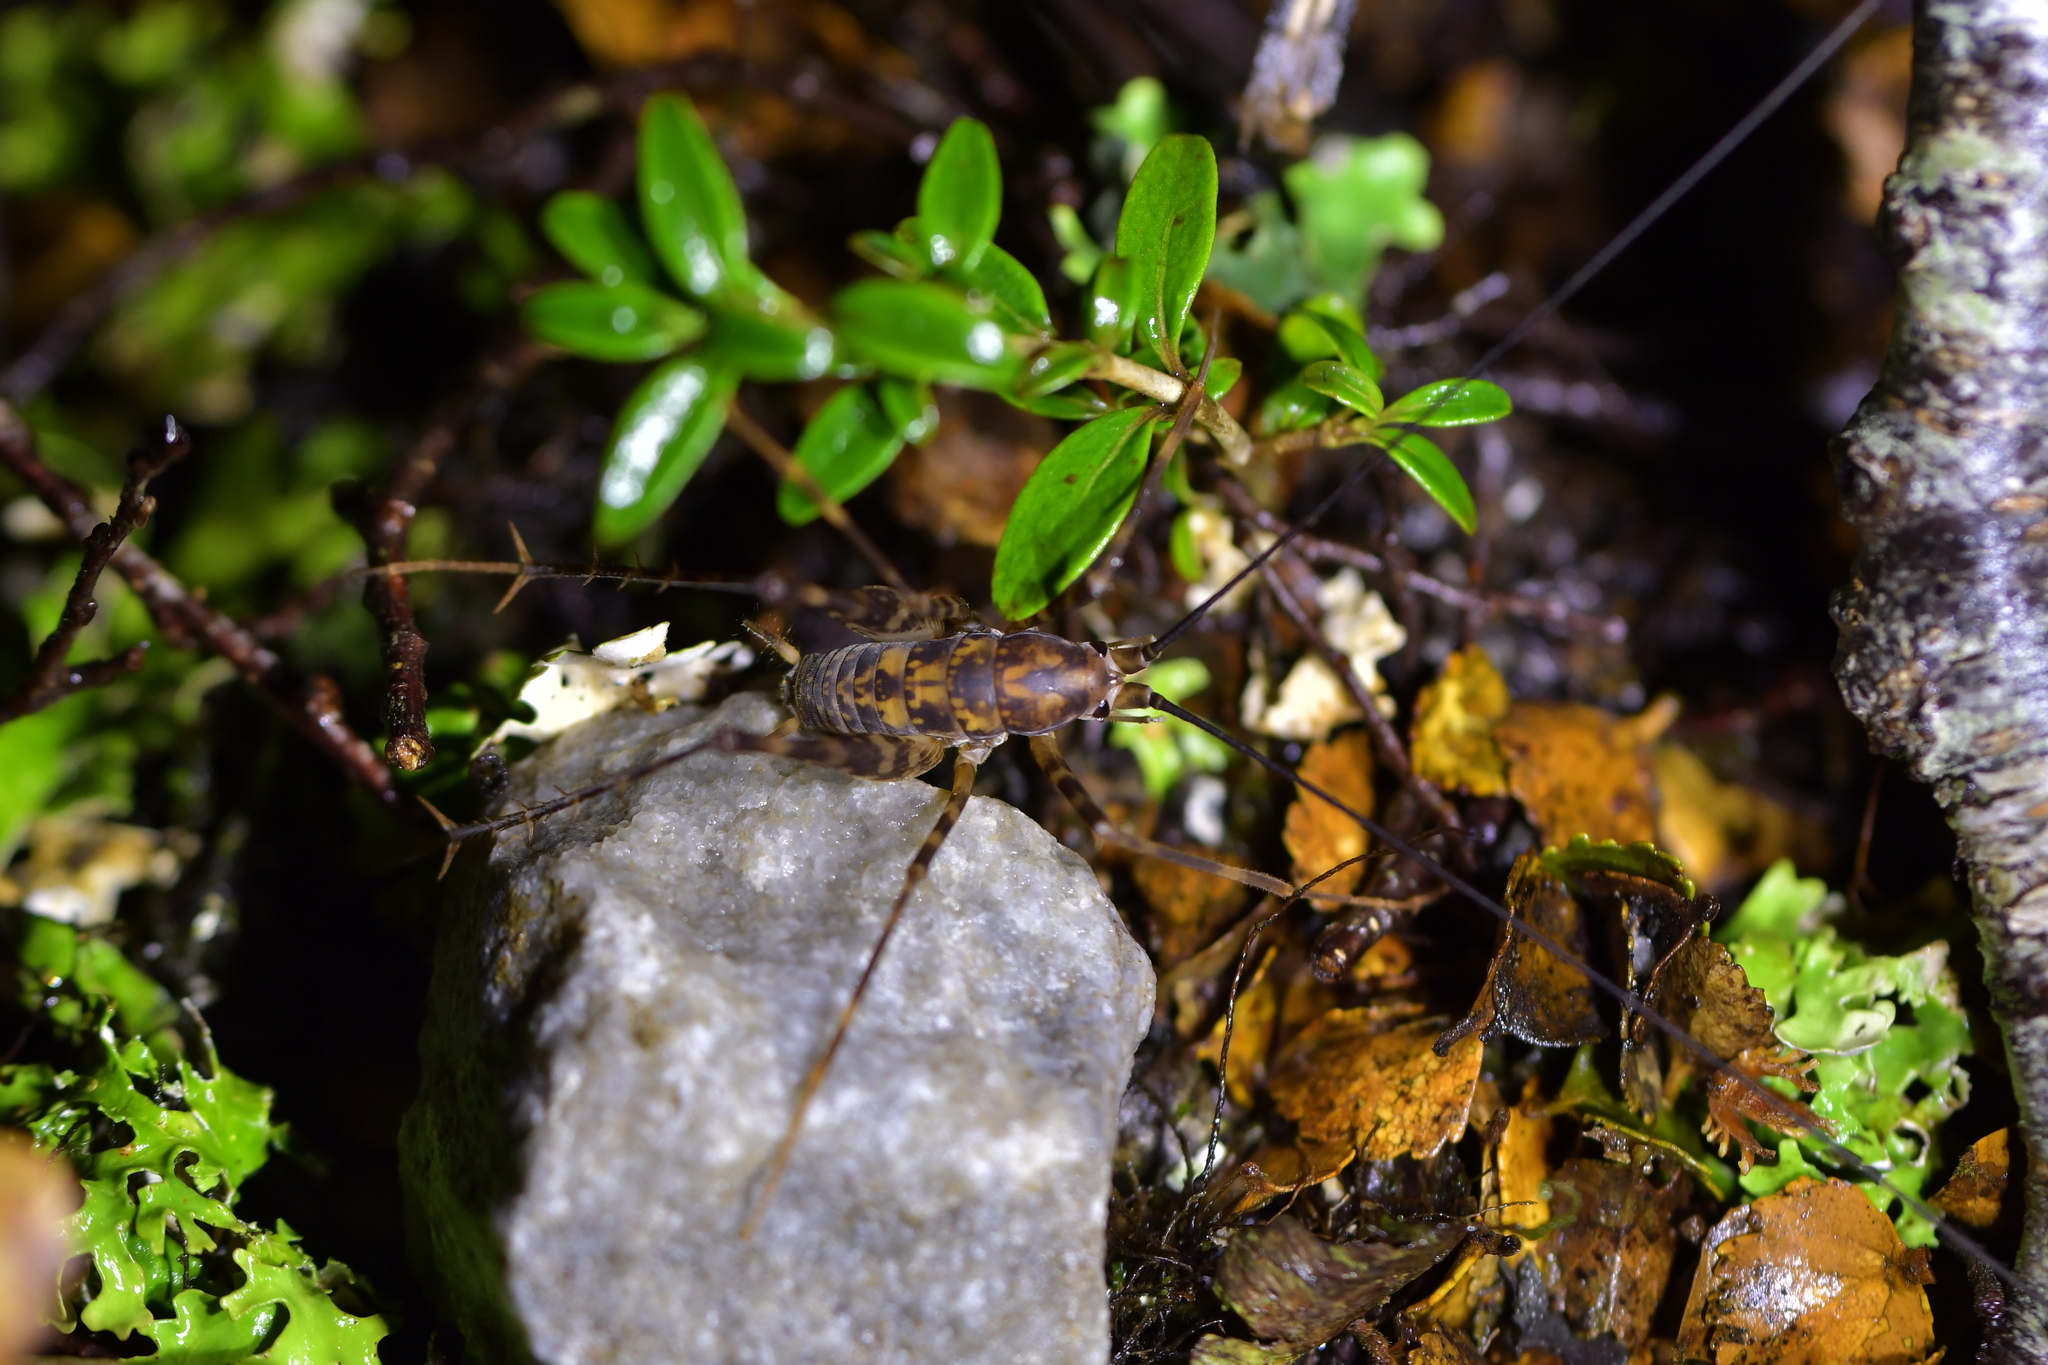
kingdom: Animalia
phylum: Arthropoda
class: Insecta
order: Orthoptera
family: Rhaphidophoridae
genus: Miotopus
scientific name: Miotopus richardsae
